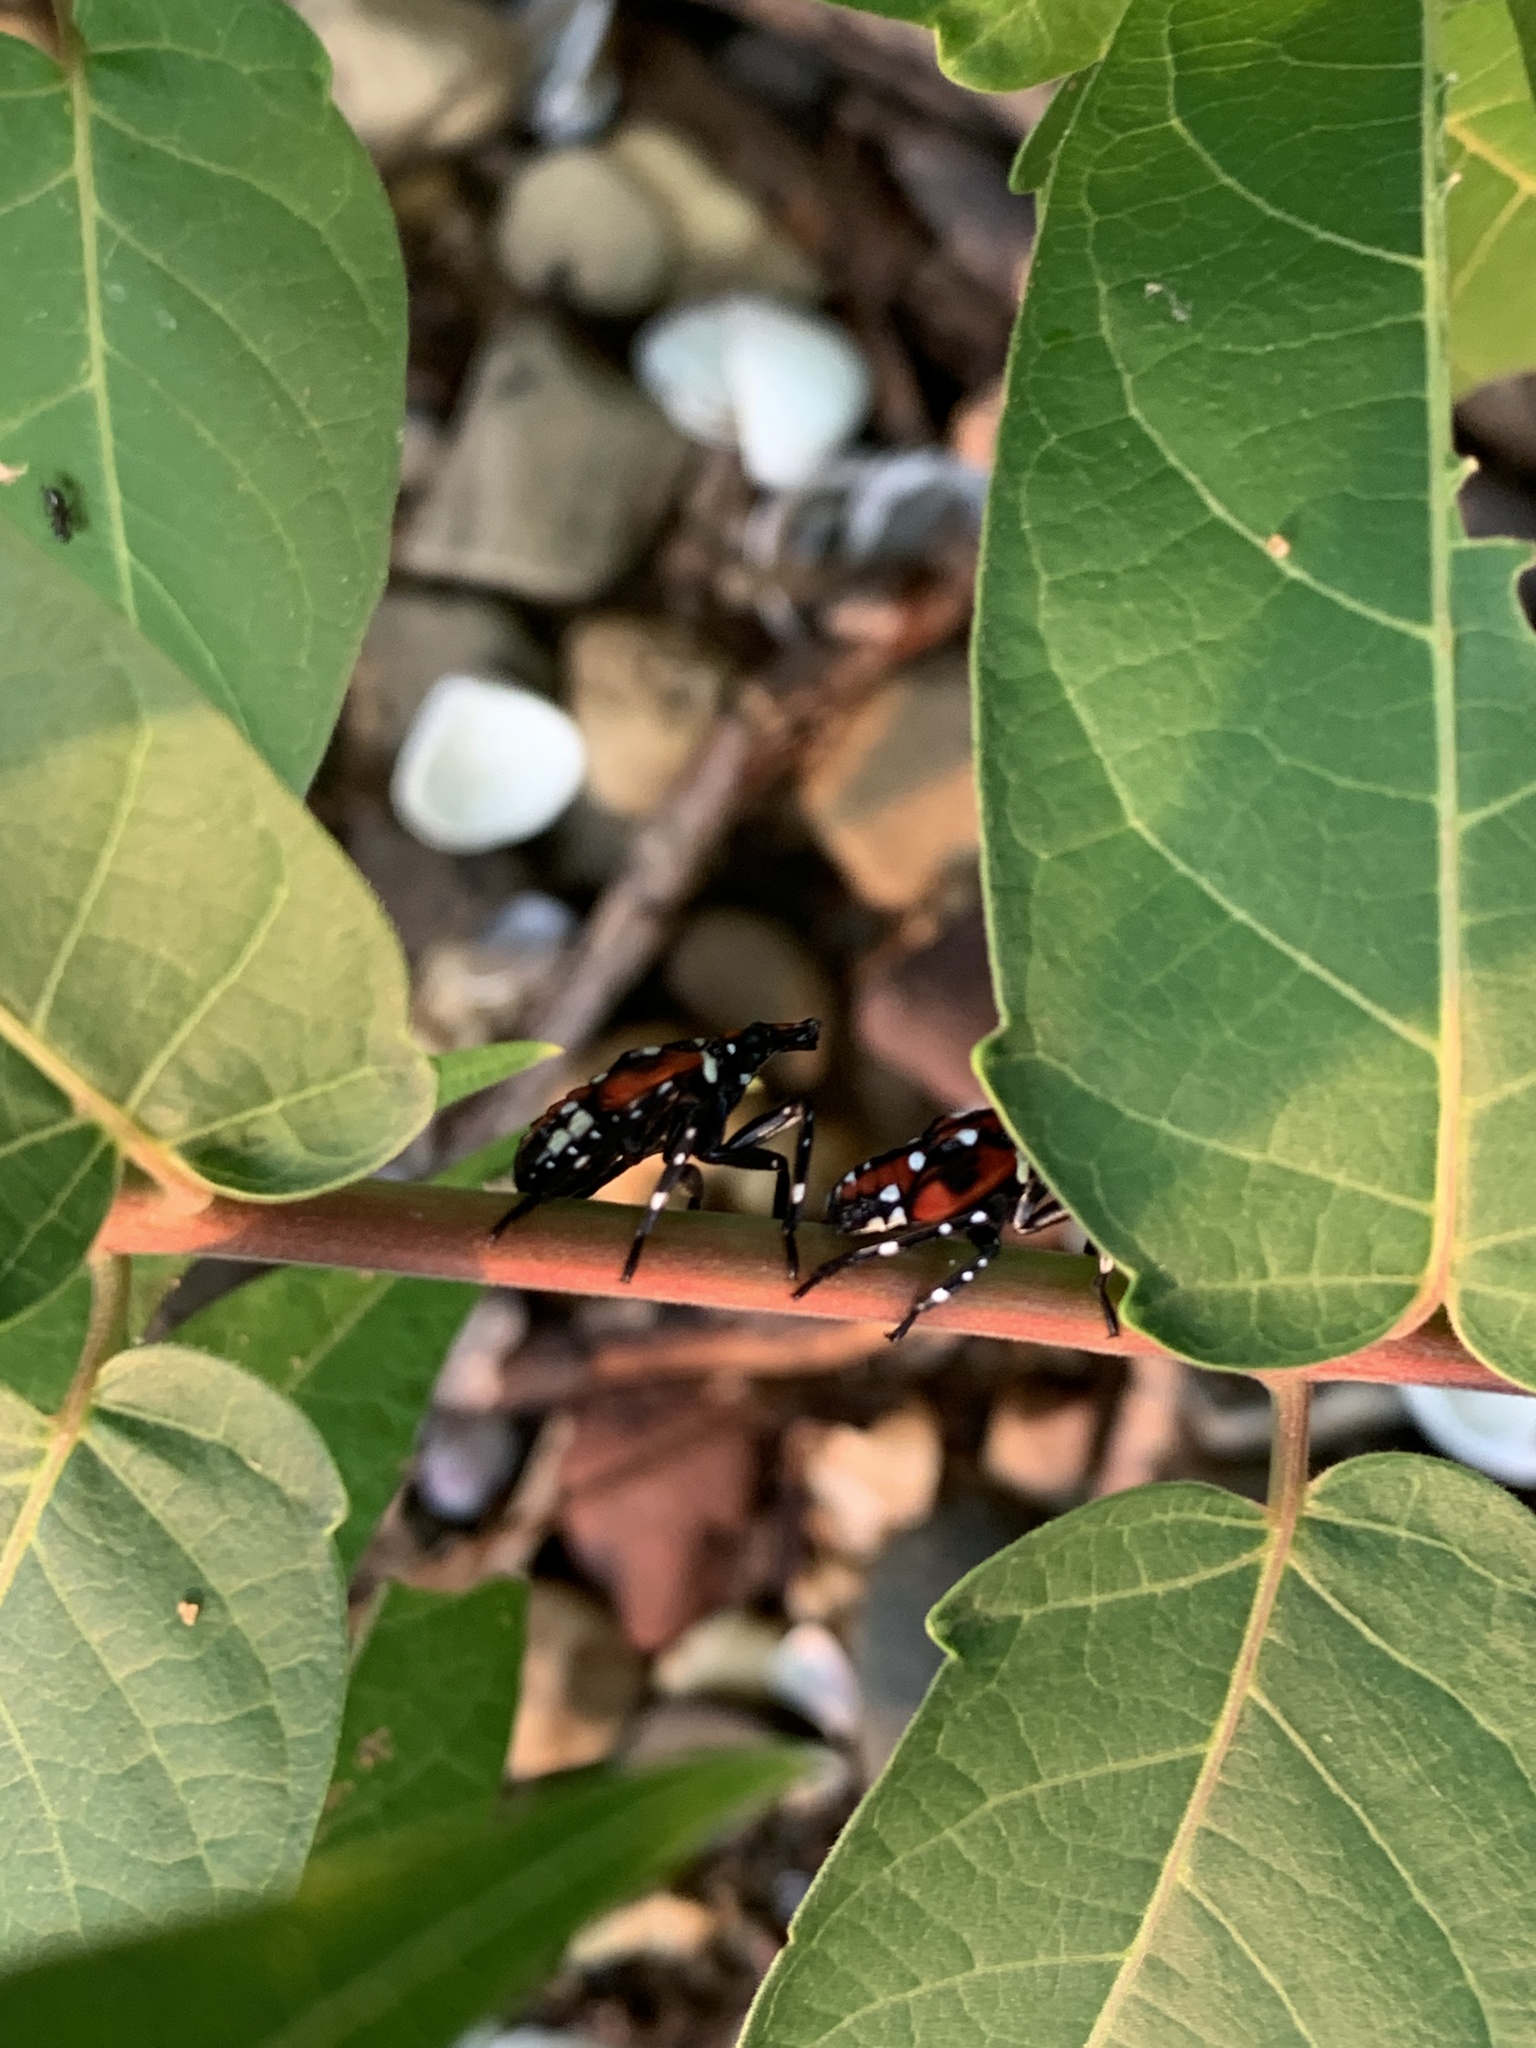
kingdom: Plantae
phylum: Tracheophyta
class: Magnoliopsida
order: Sapindales
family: Simaroubaceae
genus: Ailanthus
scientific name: Ailanthus altissima
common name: Tree-of-heaven
